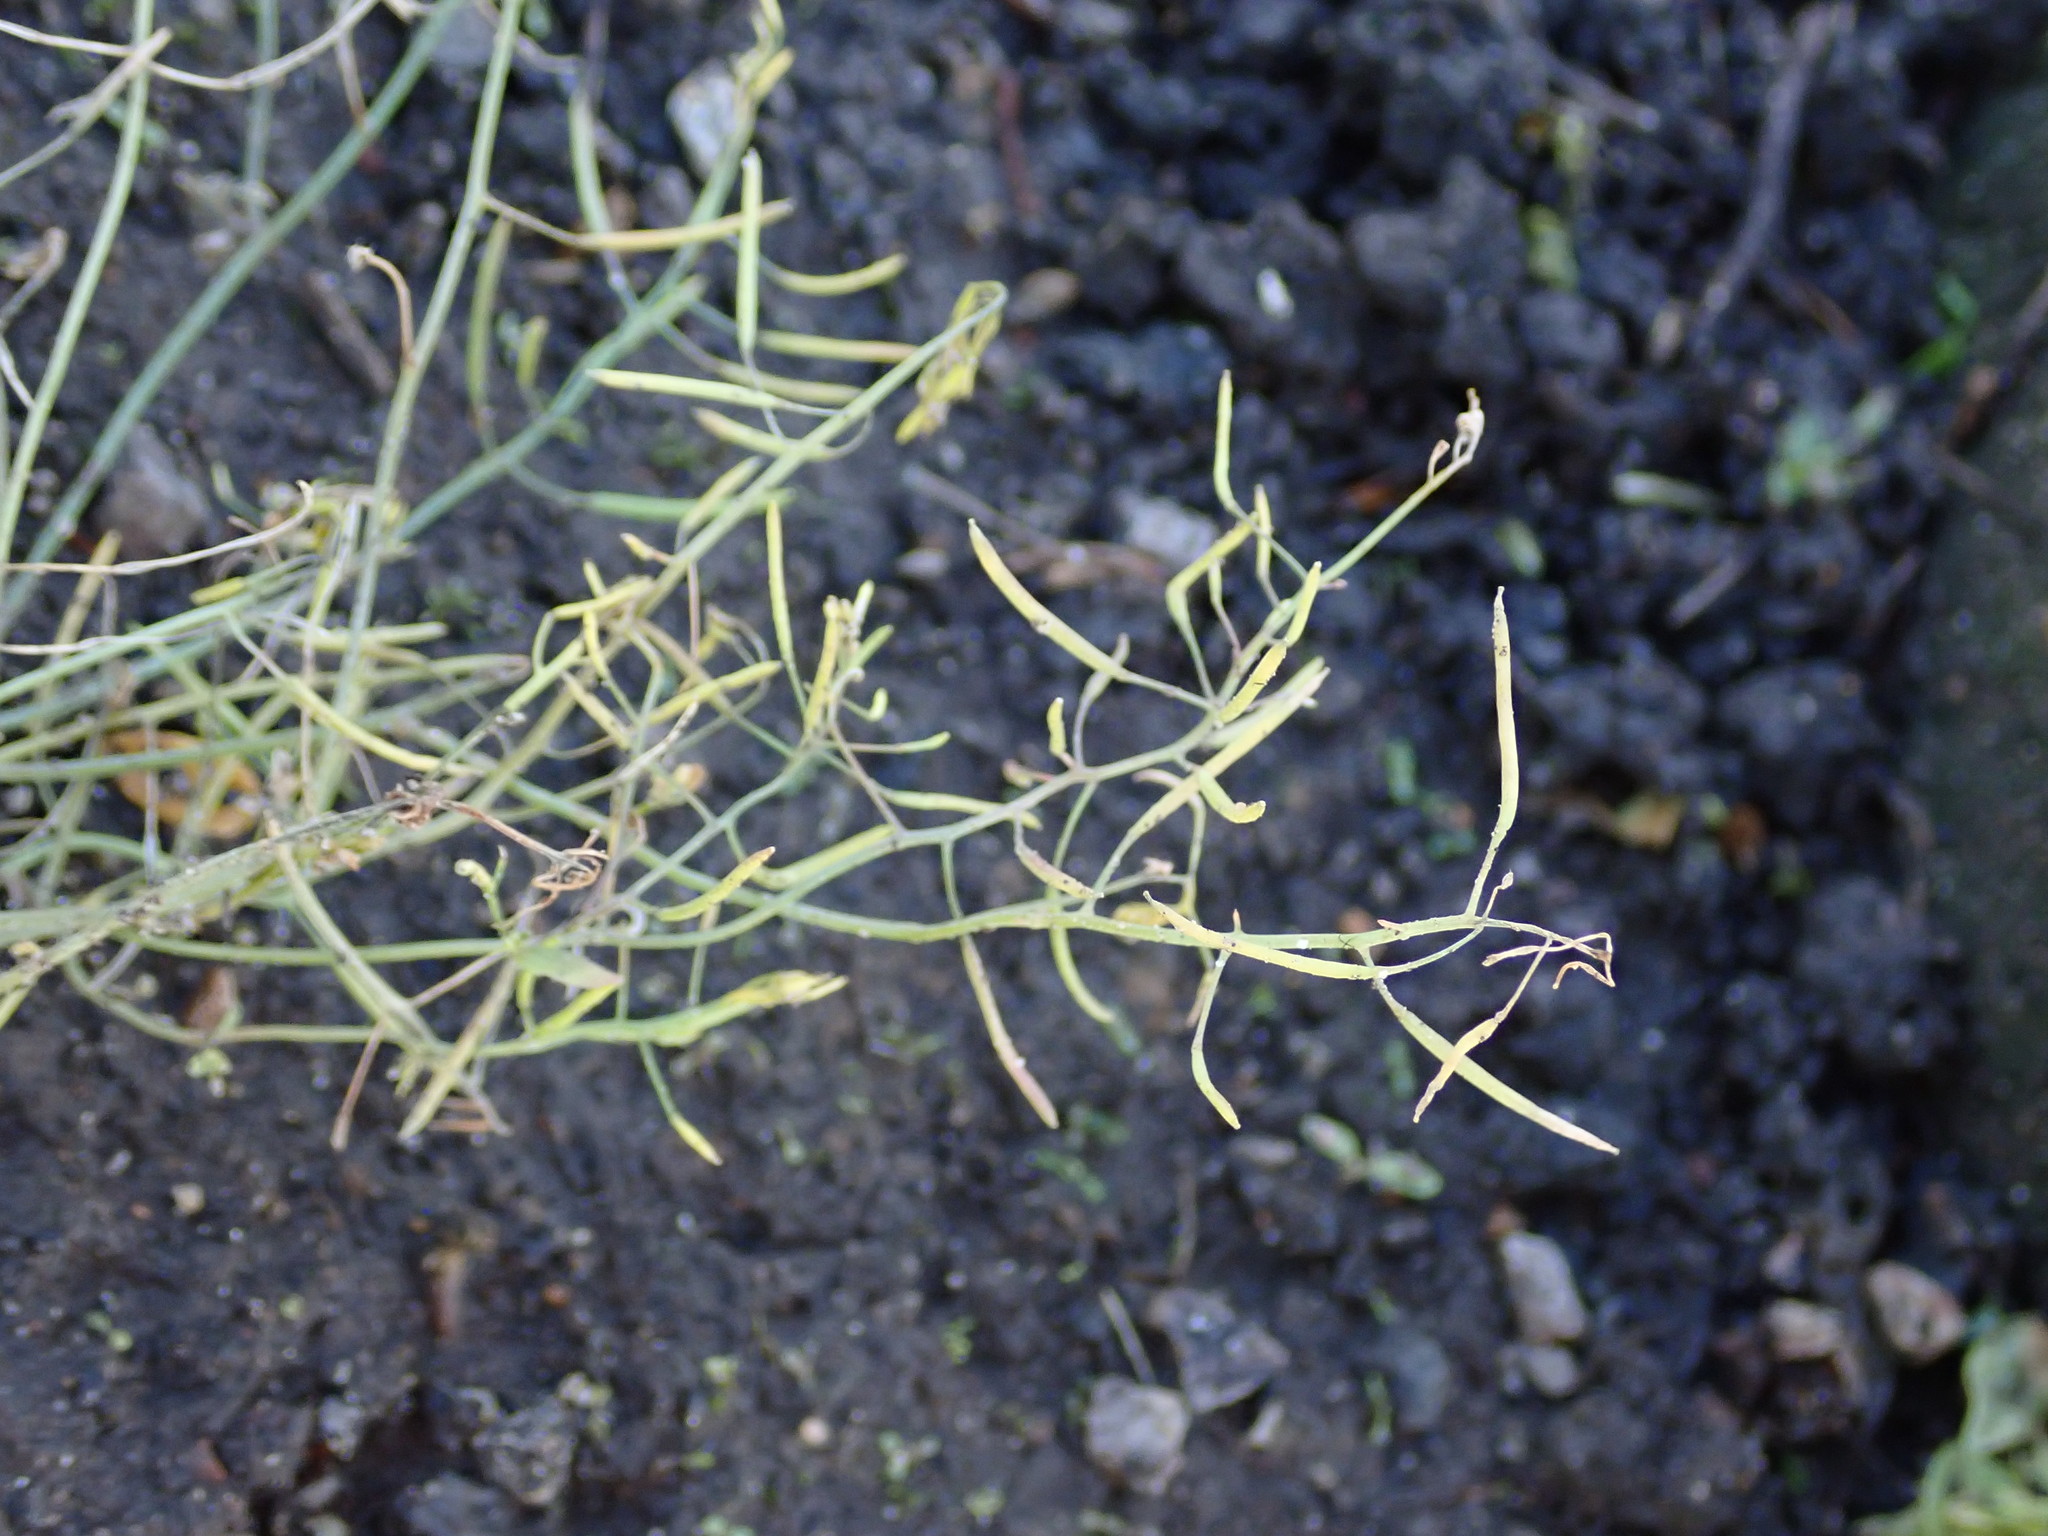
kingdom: Plantae
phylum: Tracheophyta
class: Magnoliopsida
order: Brassicales
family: Brassicaceae
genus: Arabidopsis
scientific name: Arabidopsis thaliana
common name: Thale cress
